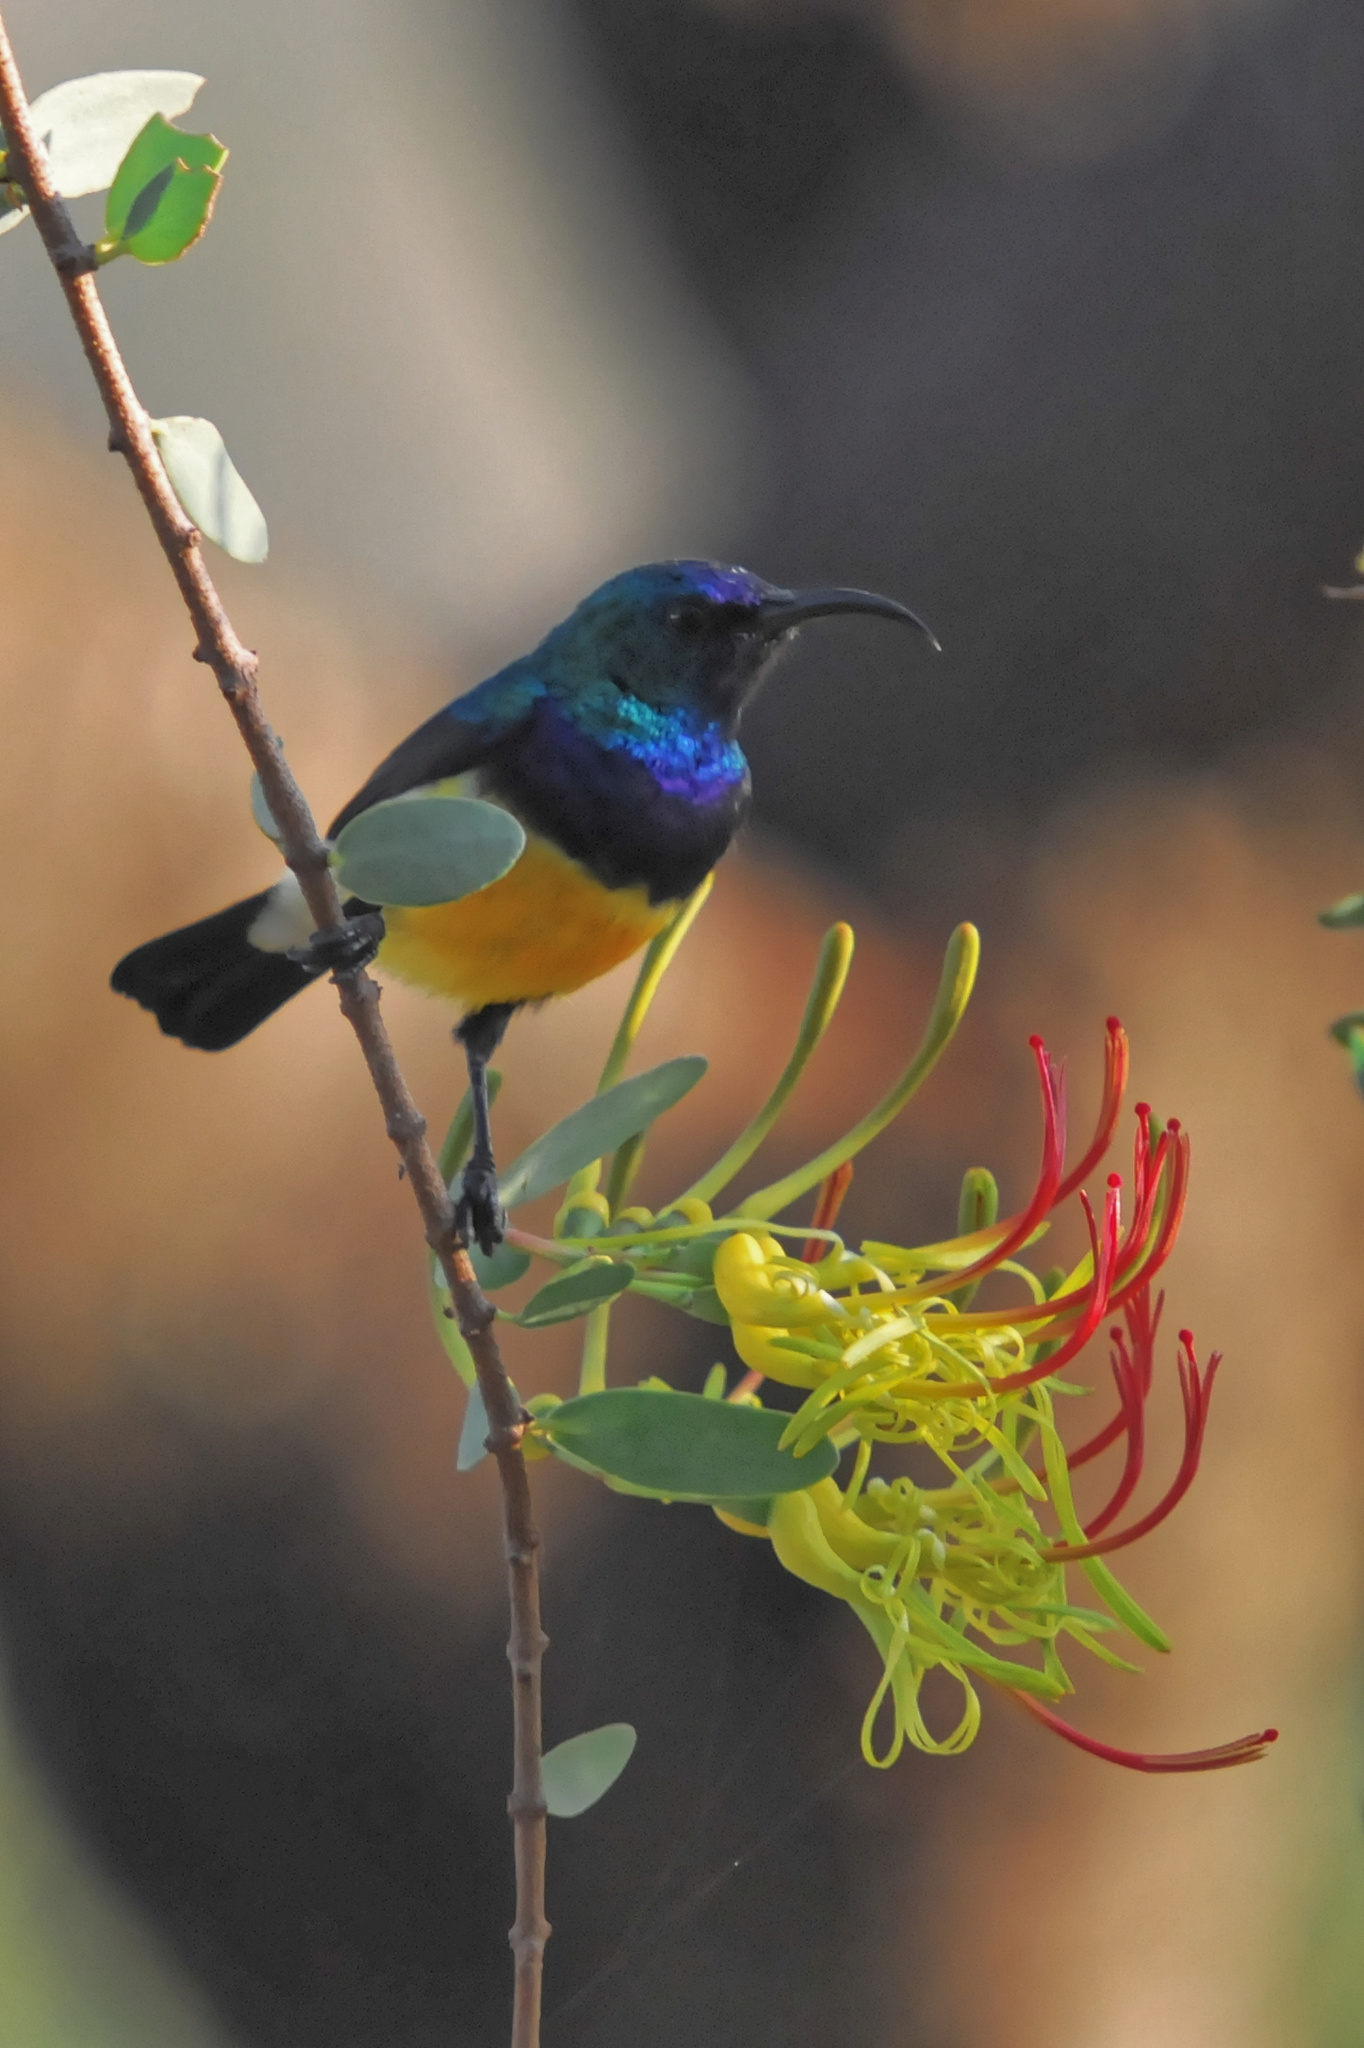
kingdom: Animalia
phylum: Chordata
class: Aves
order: Passeriformes
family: Nectariniidae
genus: Cinnyris
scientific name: Cinnyris venustus
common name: Variable sunbird
